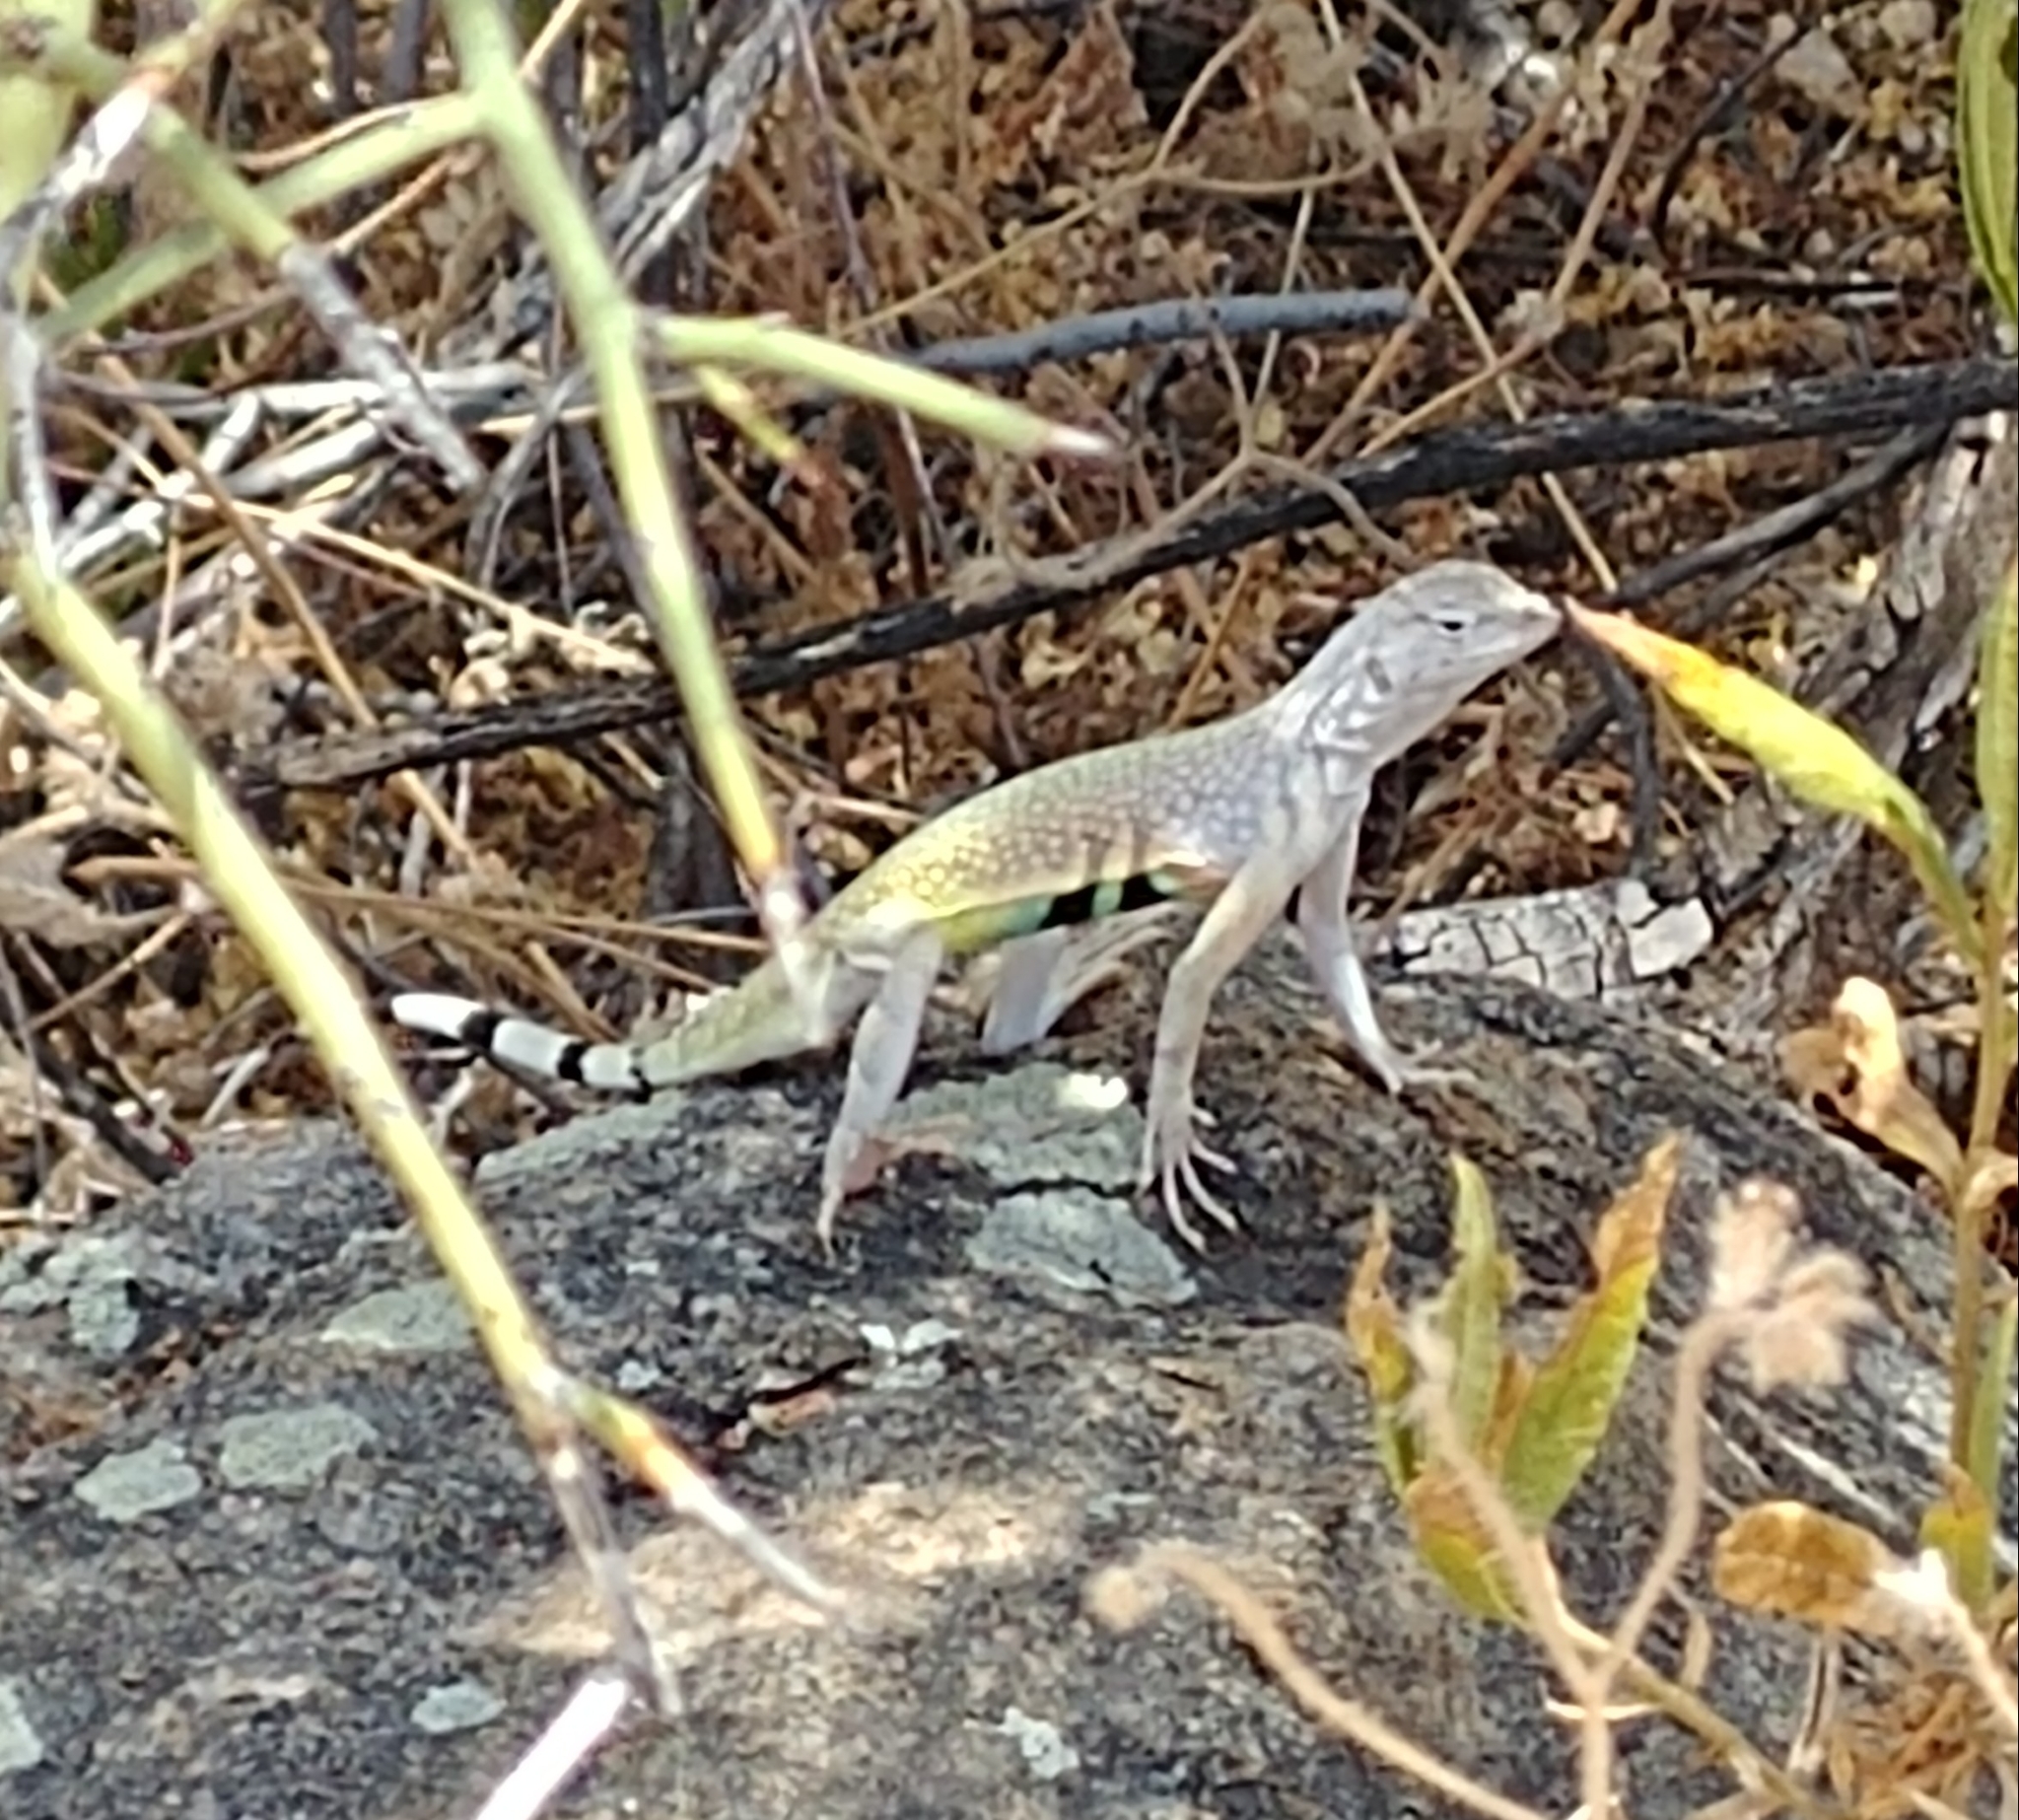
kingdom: Animalia
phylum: Chordata
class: Squamata
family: Phrynosomatidae
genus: Callisaurus
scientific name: Callisaurus draconoides
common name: Zebra-tailed lizard
